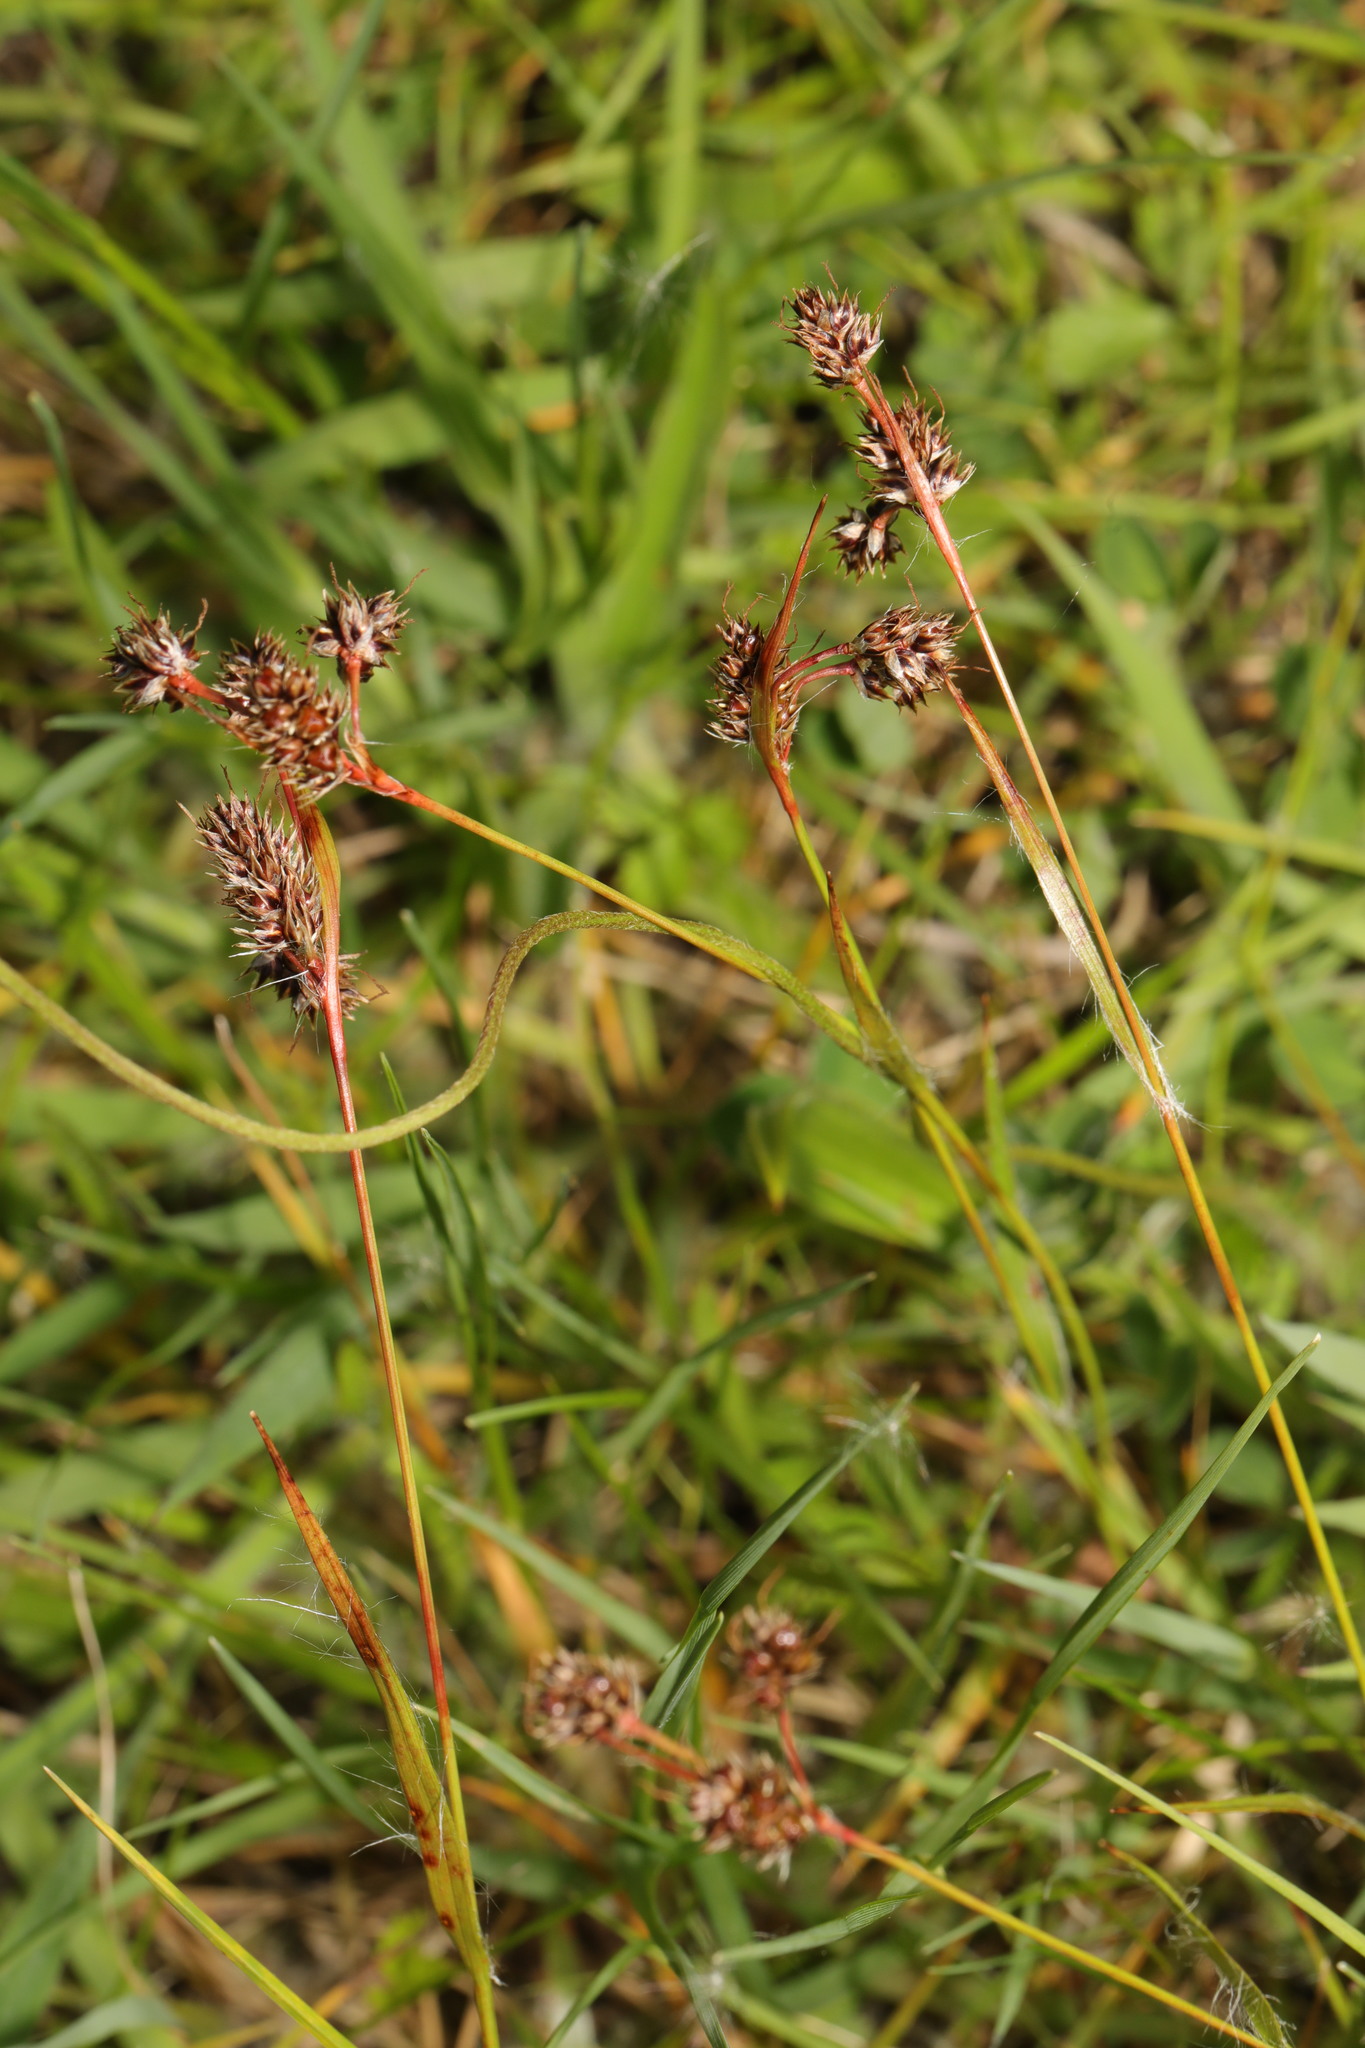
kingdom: Plantae
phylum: Tracheophyta
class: Liliopsida
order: Poales
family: Juncaceae
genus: Luzula
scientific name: Luzula campestris
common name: Field wood-rush
